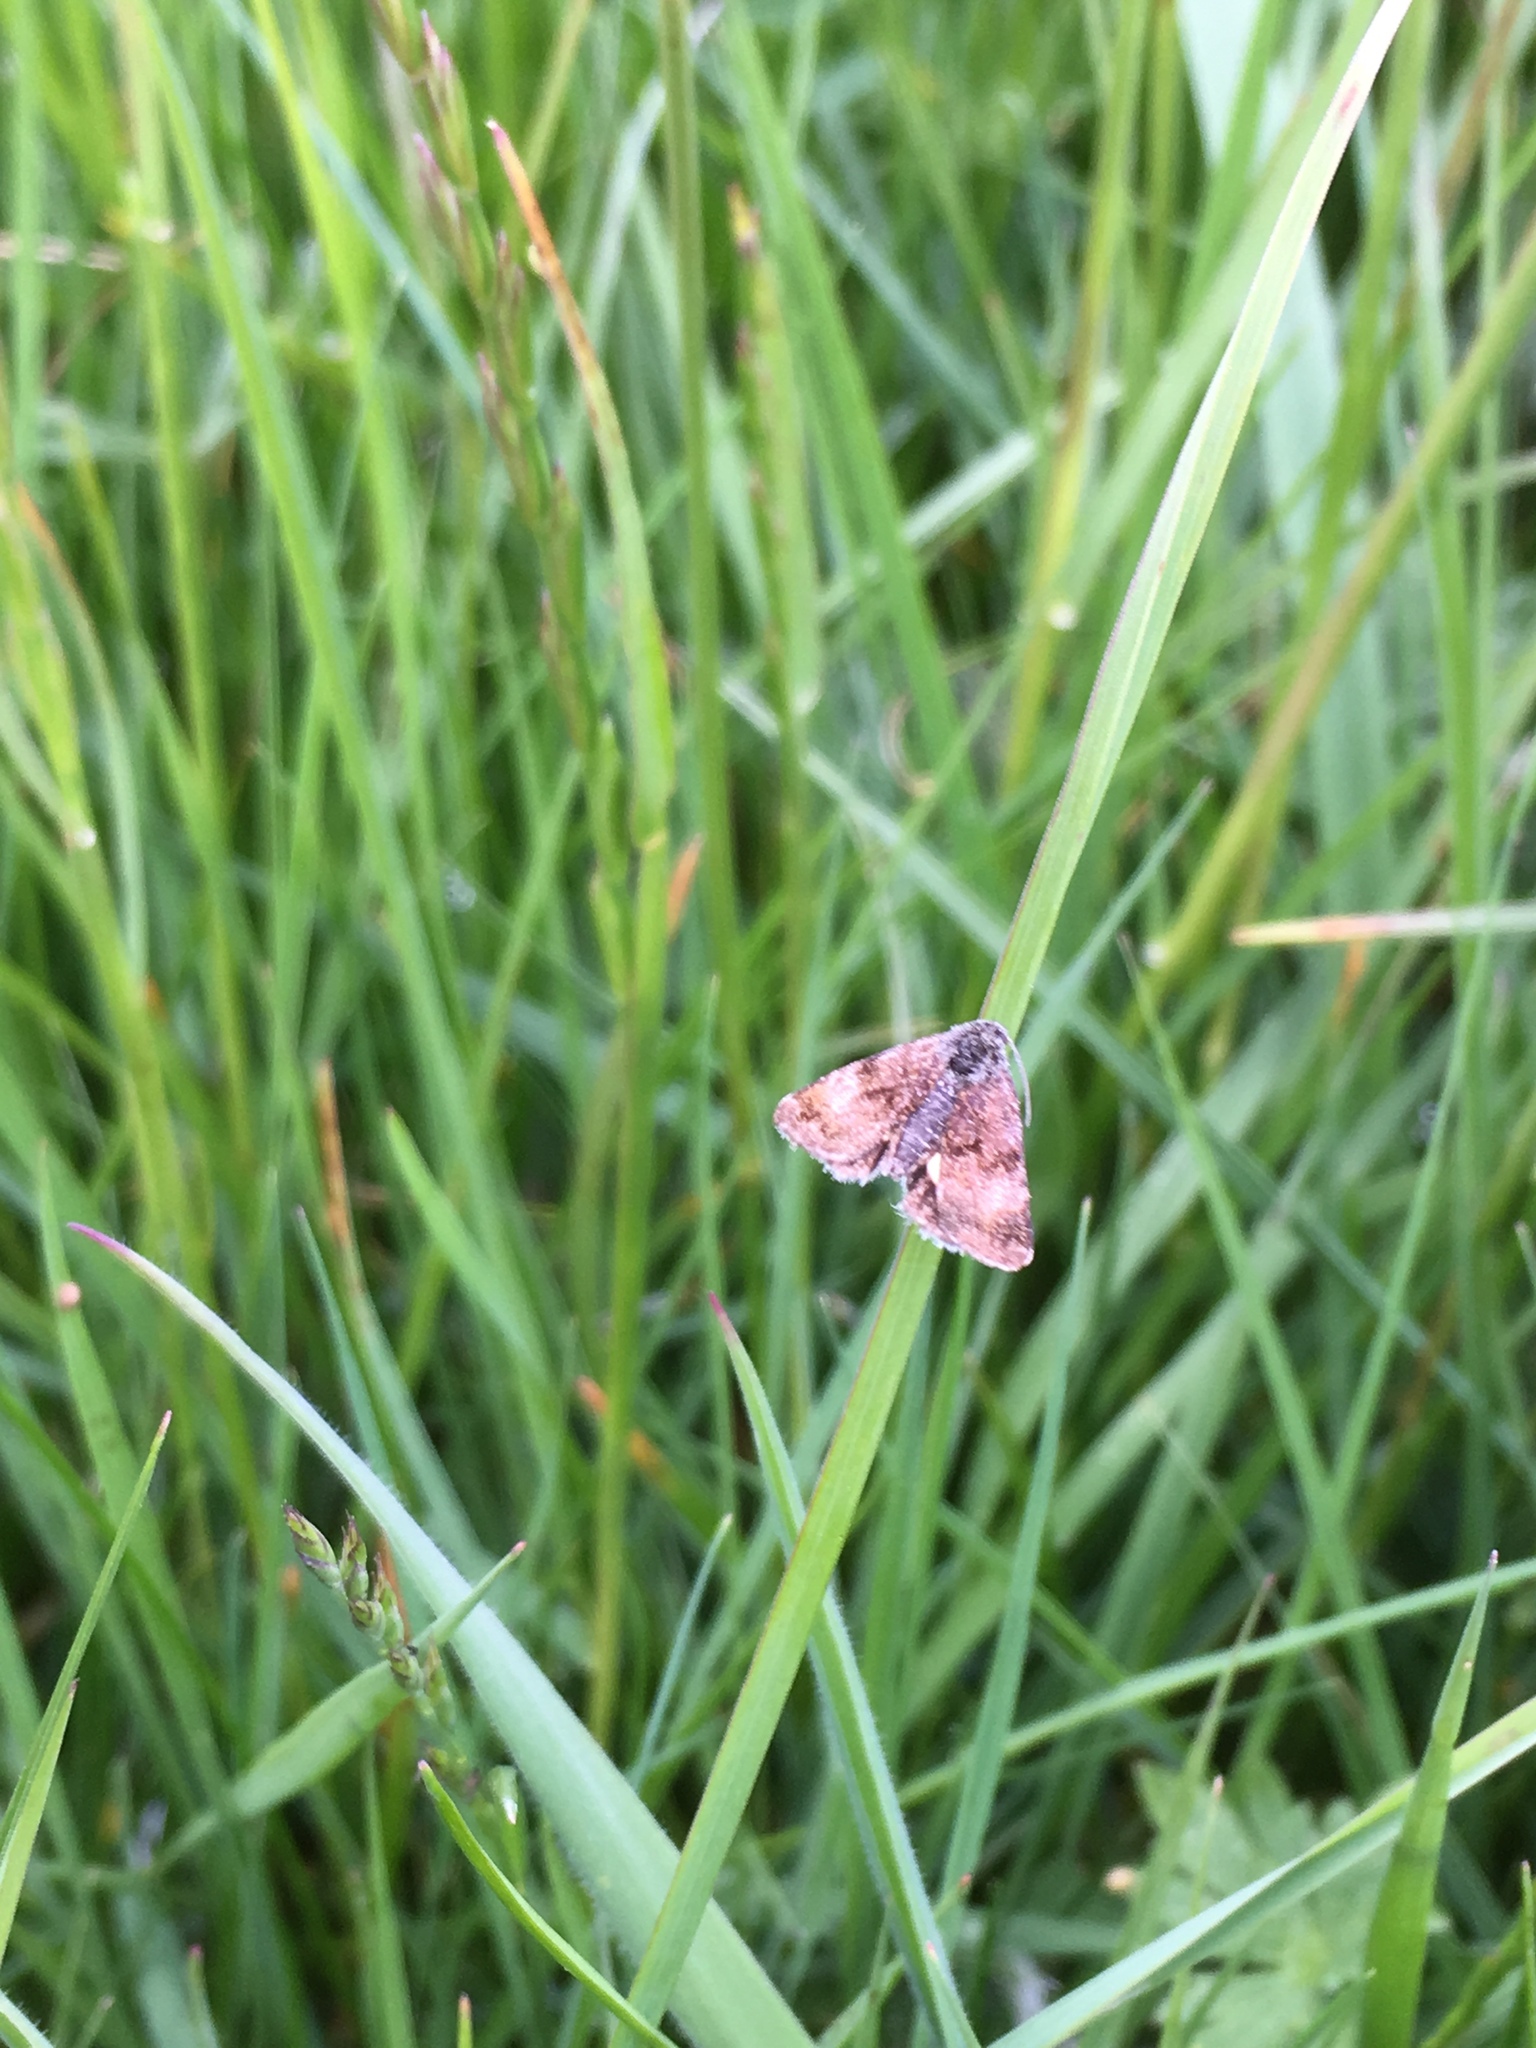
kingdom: Animalia
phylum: Arthropoda
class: Insecta
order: Lepidoptera
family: Noctuidae
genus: Panemeria
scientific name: Panemeria tenebrata
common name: Small yellow underwing
